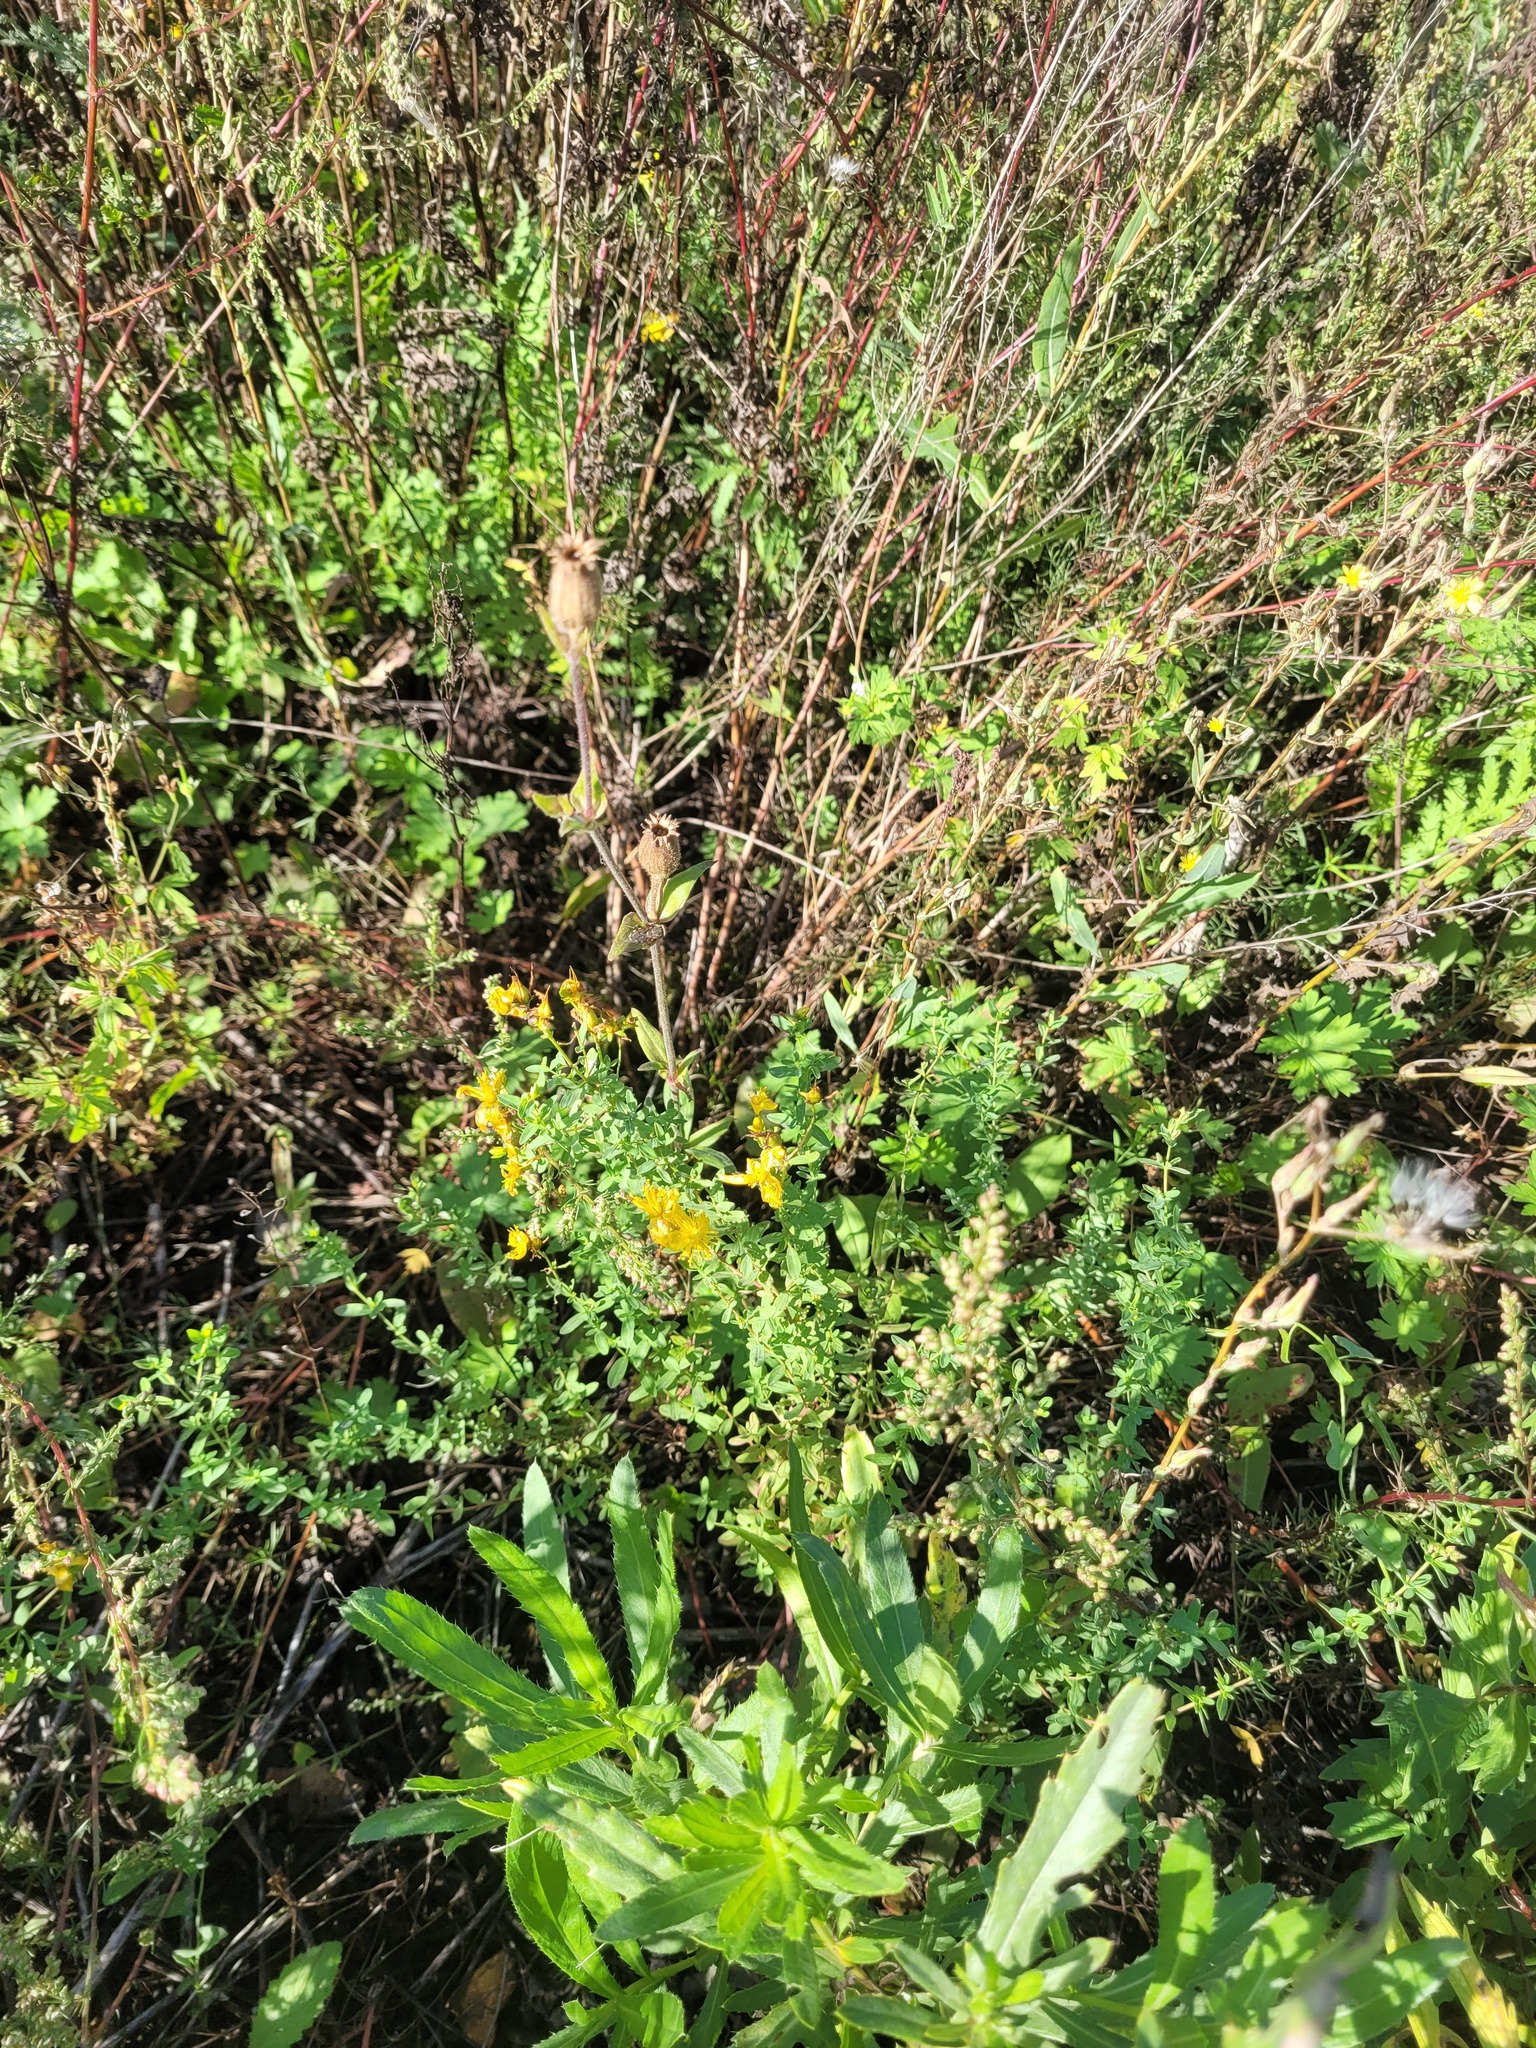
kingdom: Plantae
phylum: Tracheophyta
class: Magnoliopsida
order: Malpighiales
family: Hypericaceae
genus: Hypericum
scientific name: Hypericum perforatum
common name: Common st. johnswort
